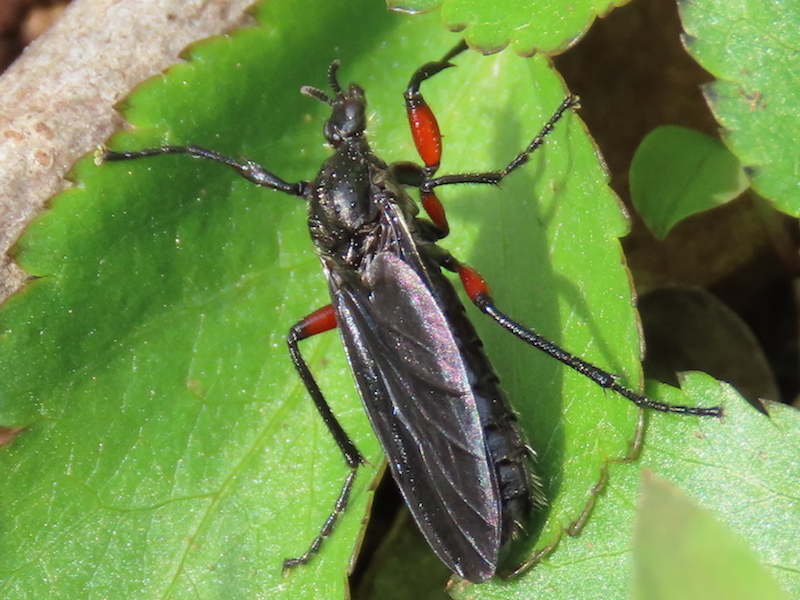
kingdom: Animalia
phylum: Arthropoda
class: Insecta
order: Diptera
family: Bibionidae
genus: Bibio
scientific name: Bibio femoratus
